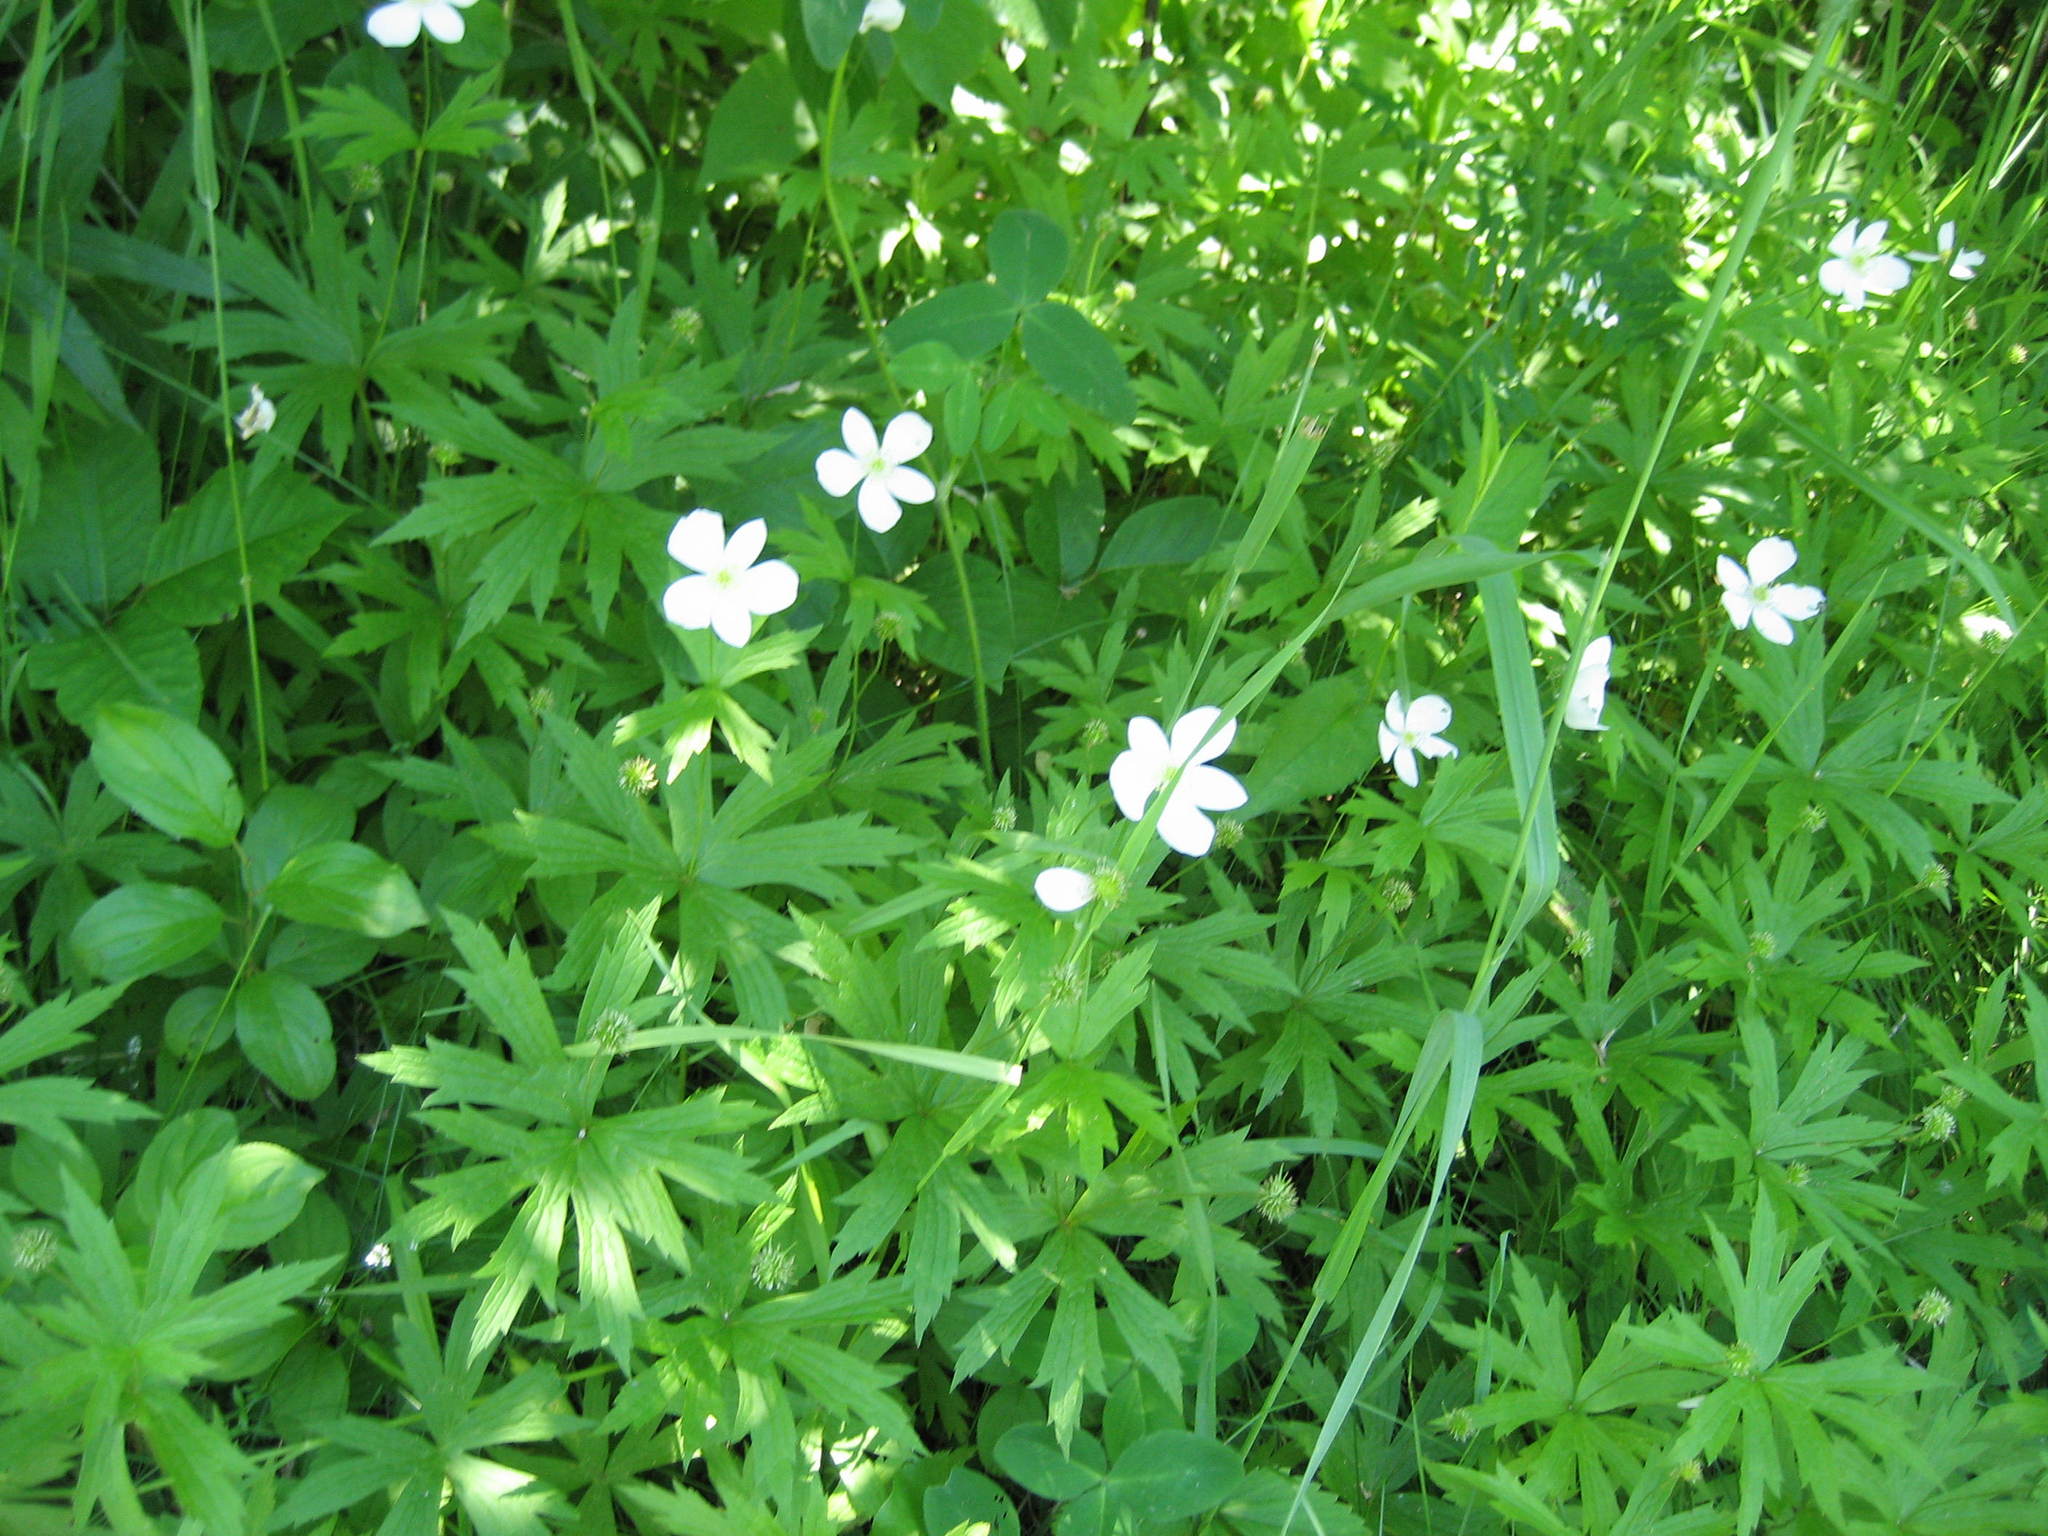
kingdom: Plantae
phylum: Tracheophyta
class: Magnoliopsida
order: Ranunculales
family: Ranunculaceae
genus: Anemonastrum
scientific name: Anemonastrum canadense
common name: Canada anemone
